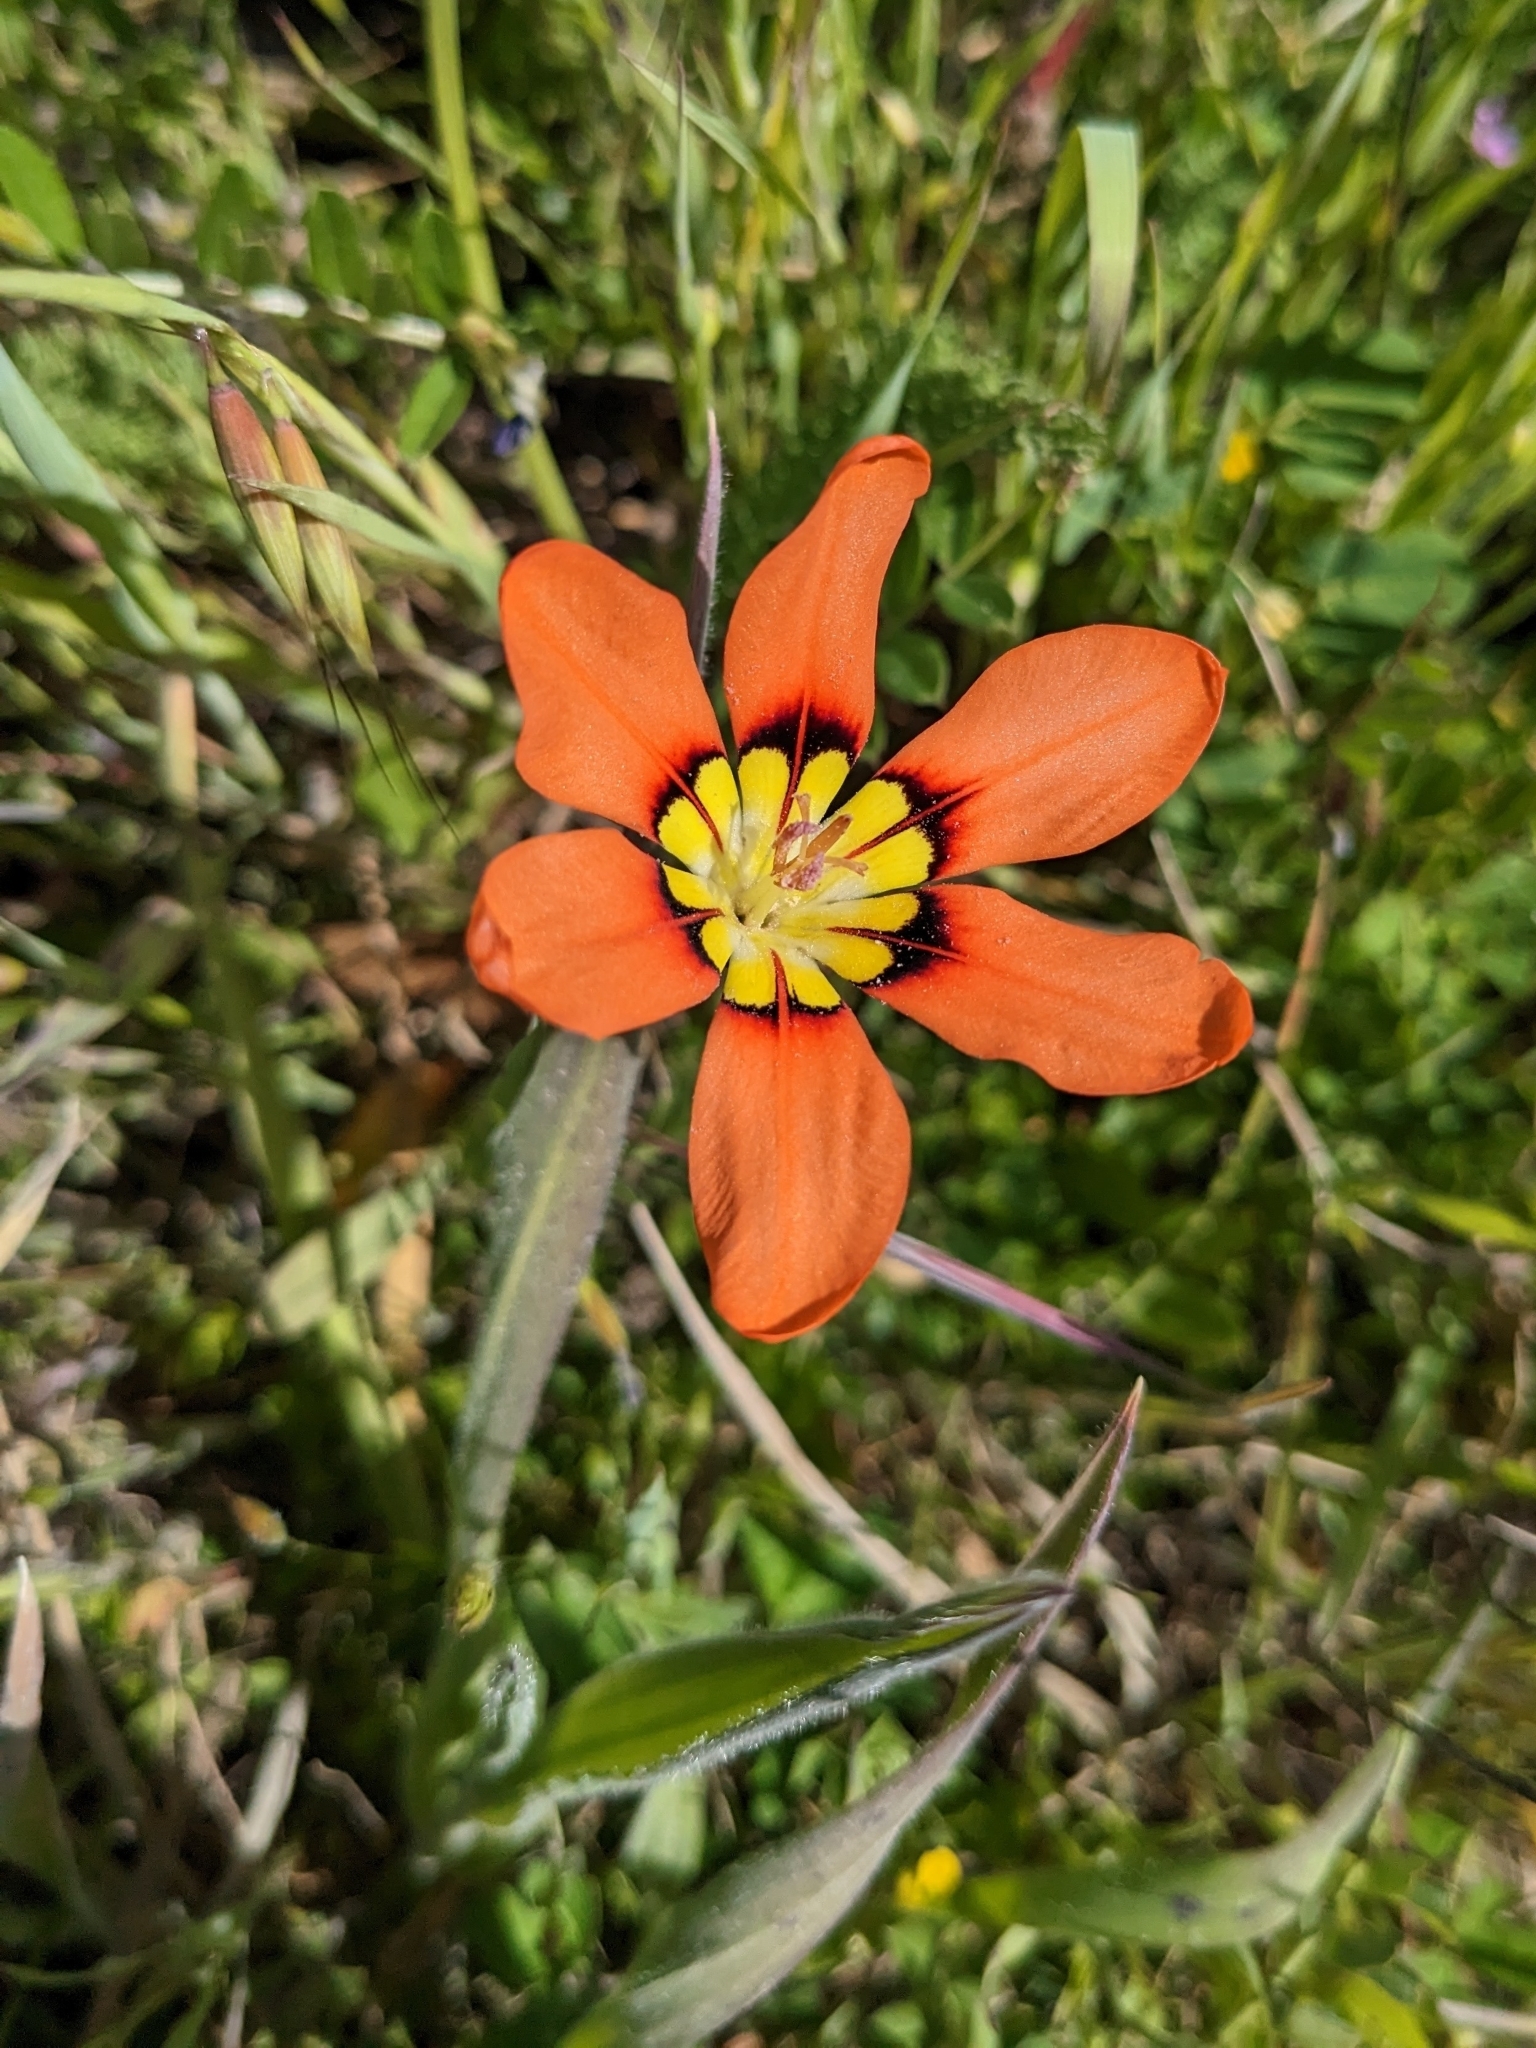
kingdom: Plantae
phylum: Tracheophyta
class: Liliopsida
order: Asparagales
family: Iridaceae
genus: Sparaxis
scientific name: Sparaxis tricolor
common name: Wandflower
